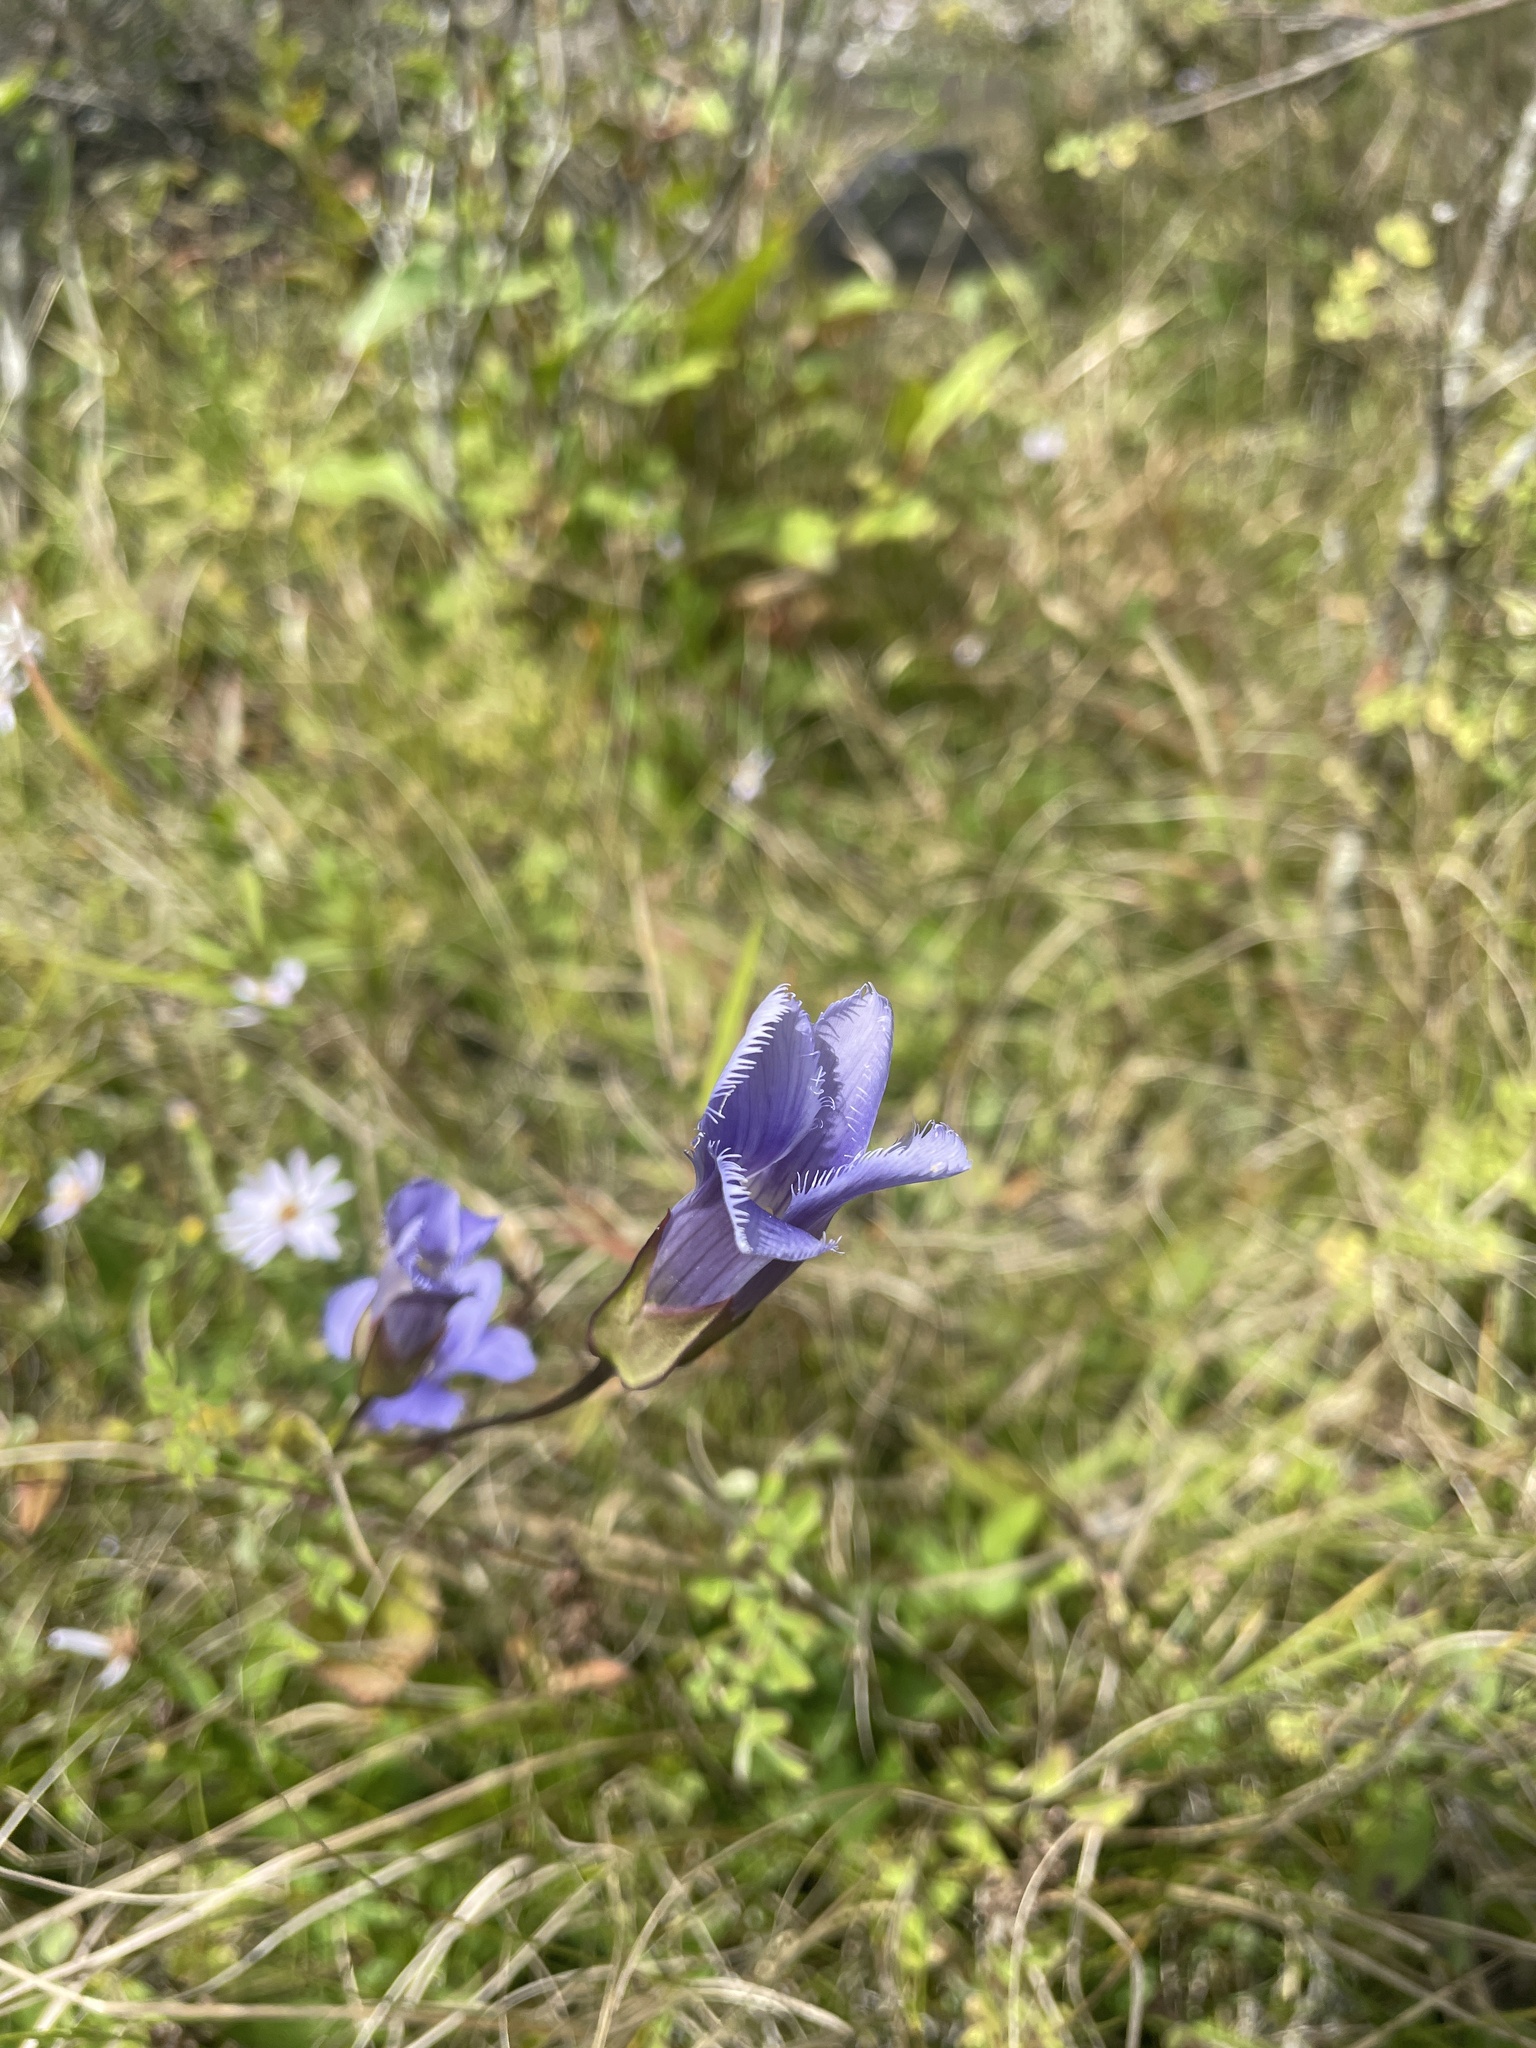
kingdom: Plantae
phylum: Tracheophyta
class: Magnoliopsida
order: Gentianales
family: Gentianaceae
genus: Gentianopsis
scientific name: Gentianopsis crinita
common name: Fringed-gentian
